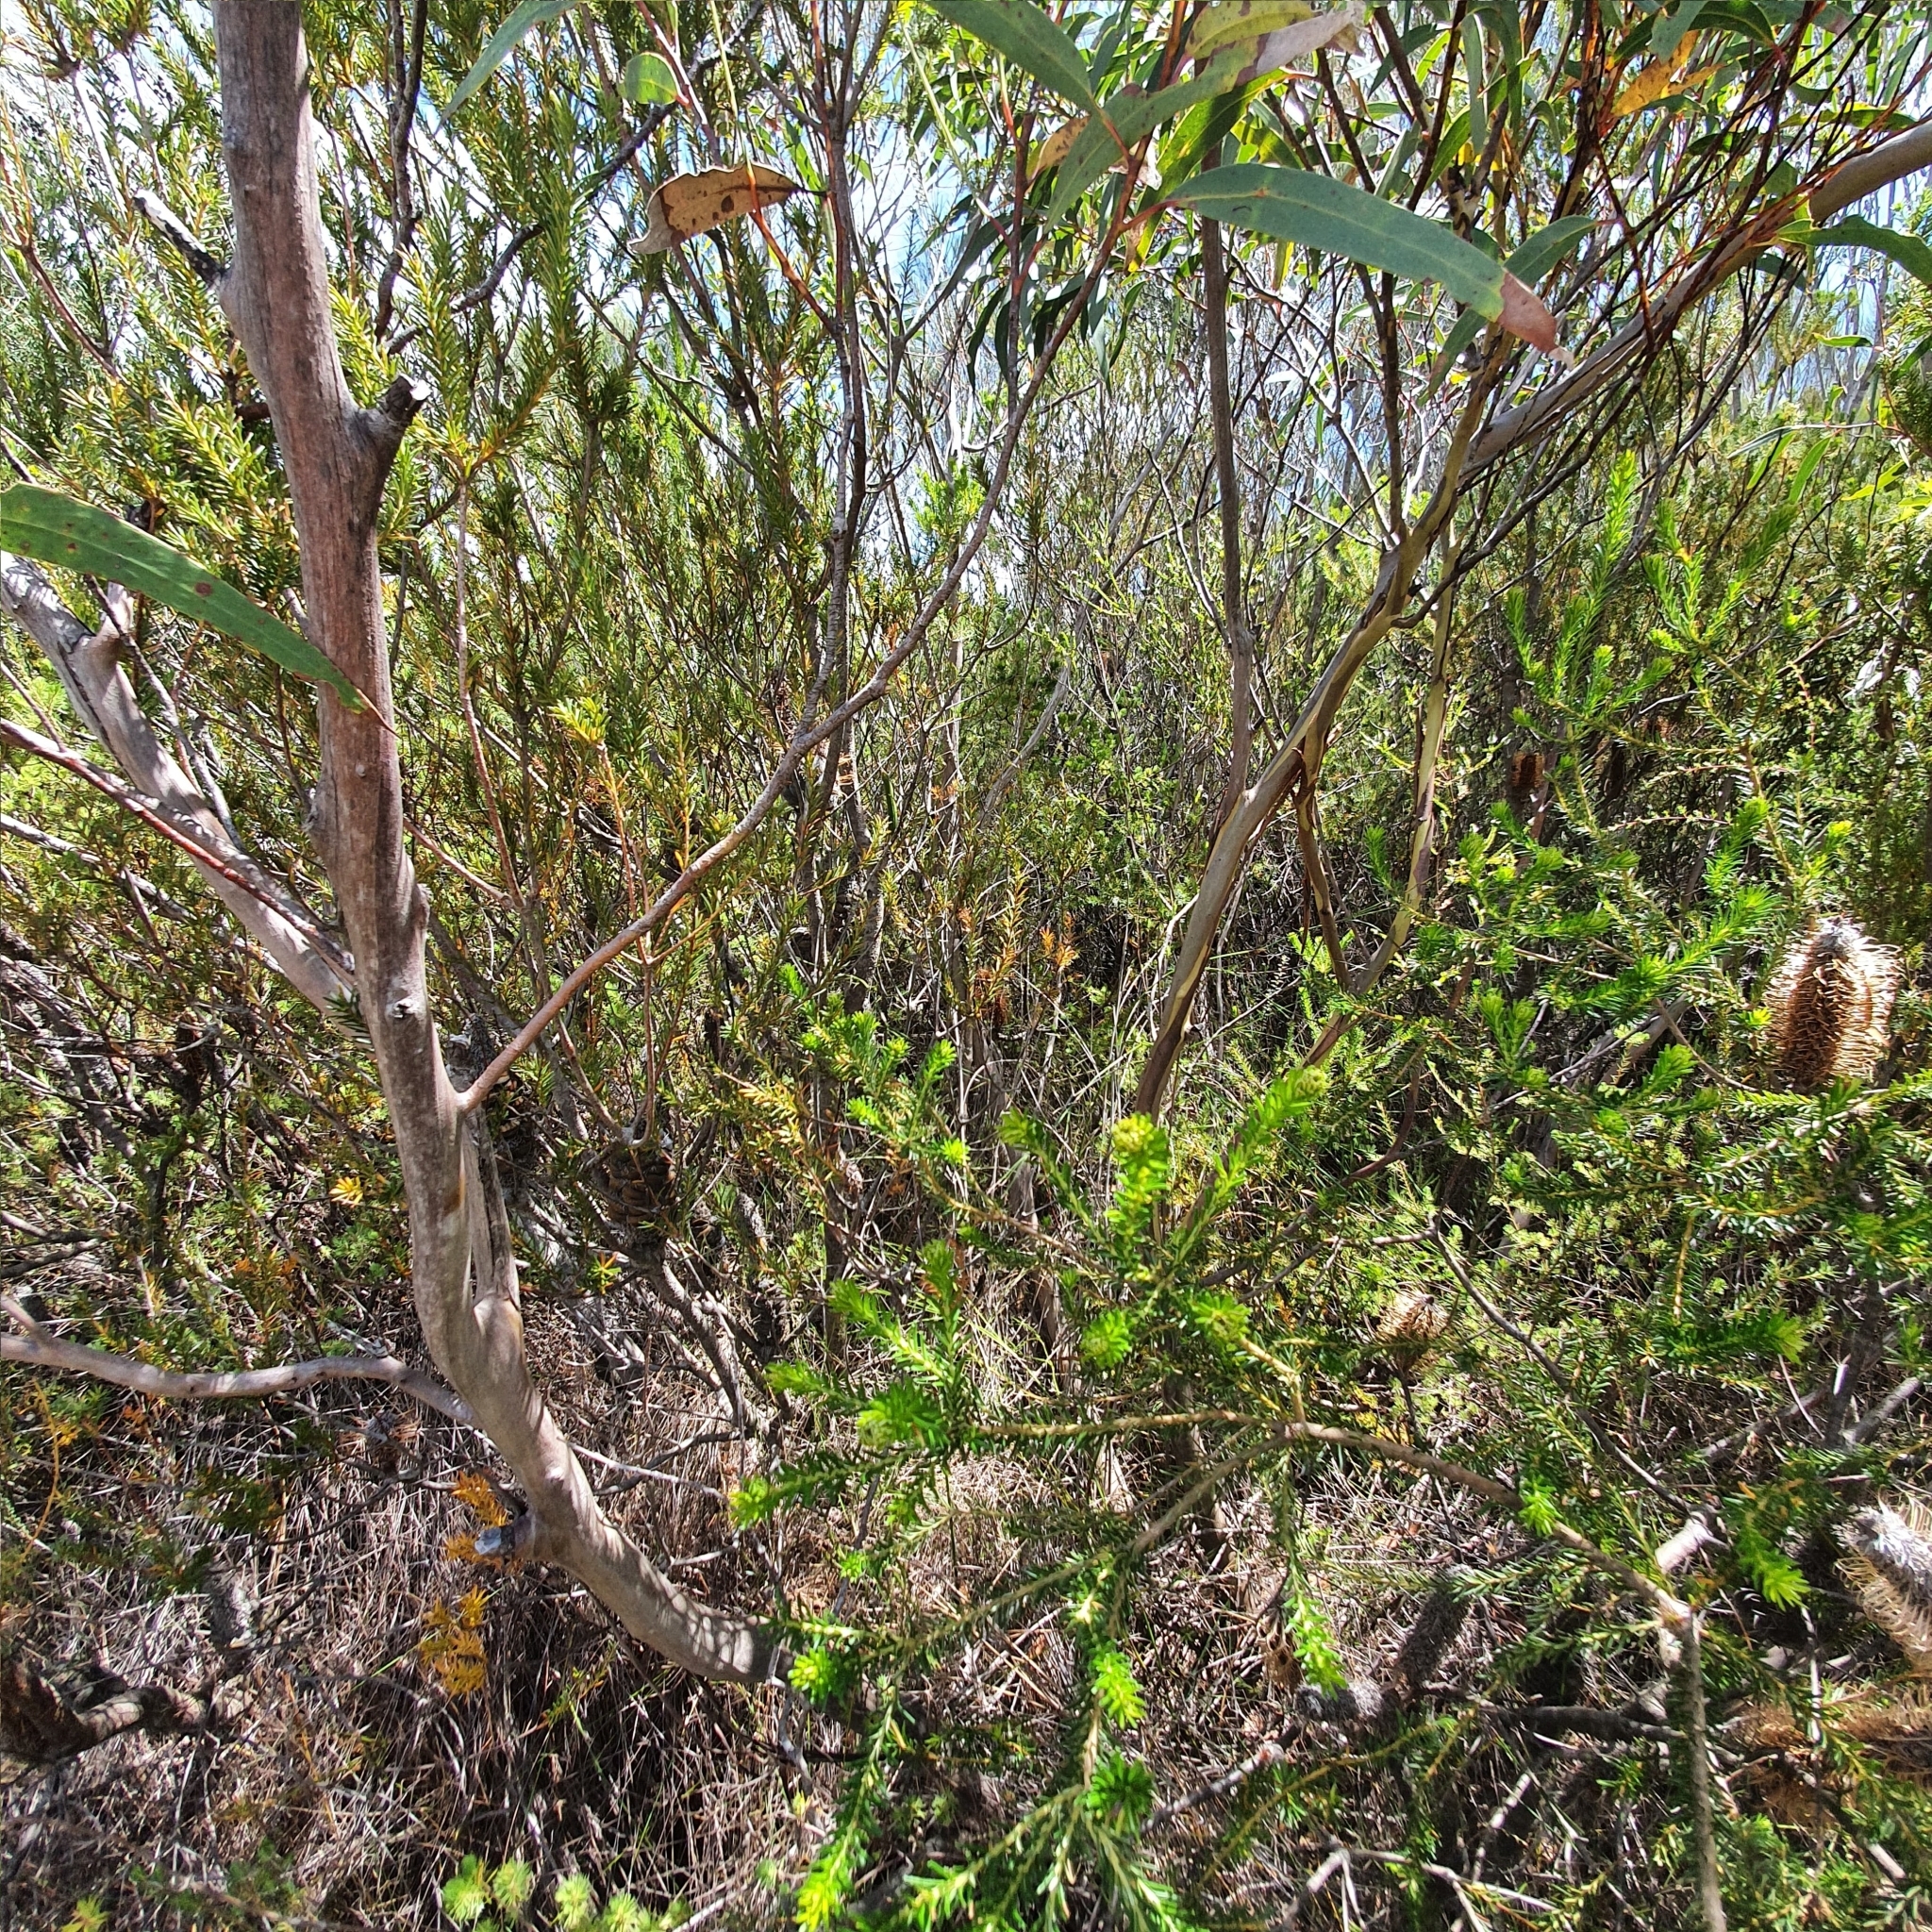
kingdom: Plantae
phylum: Tracheophyta
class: Magnoliopsida
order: Myrtales
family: Myrtaceae
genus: Eucalyptus
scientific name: Eucalyptus burgessiana
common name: Falconbridge mallee-ash
